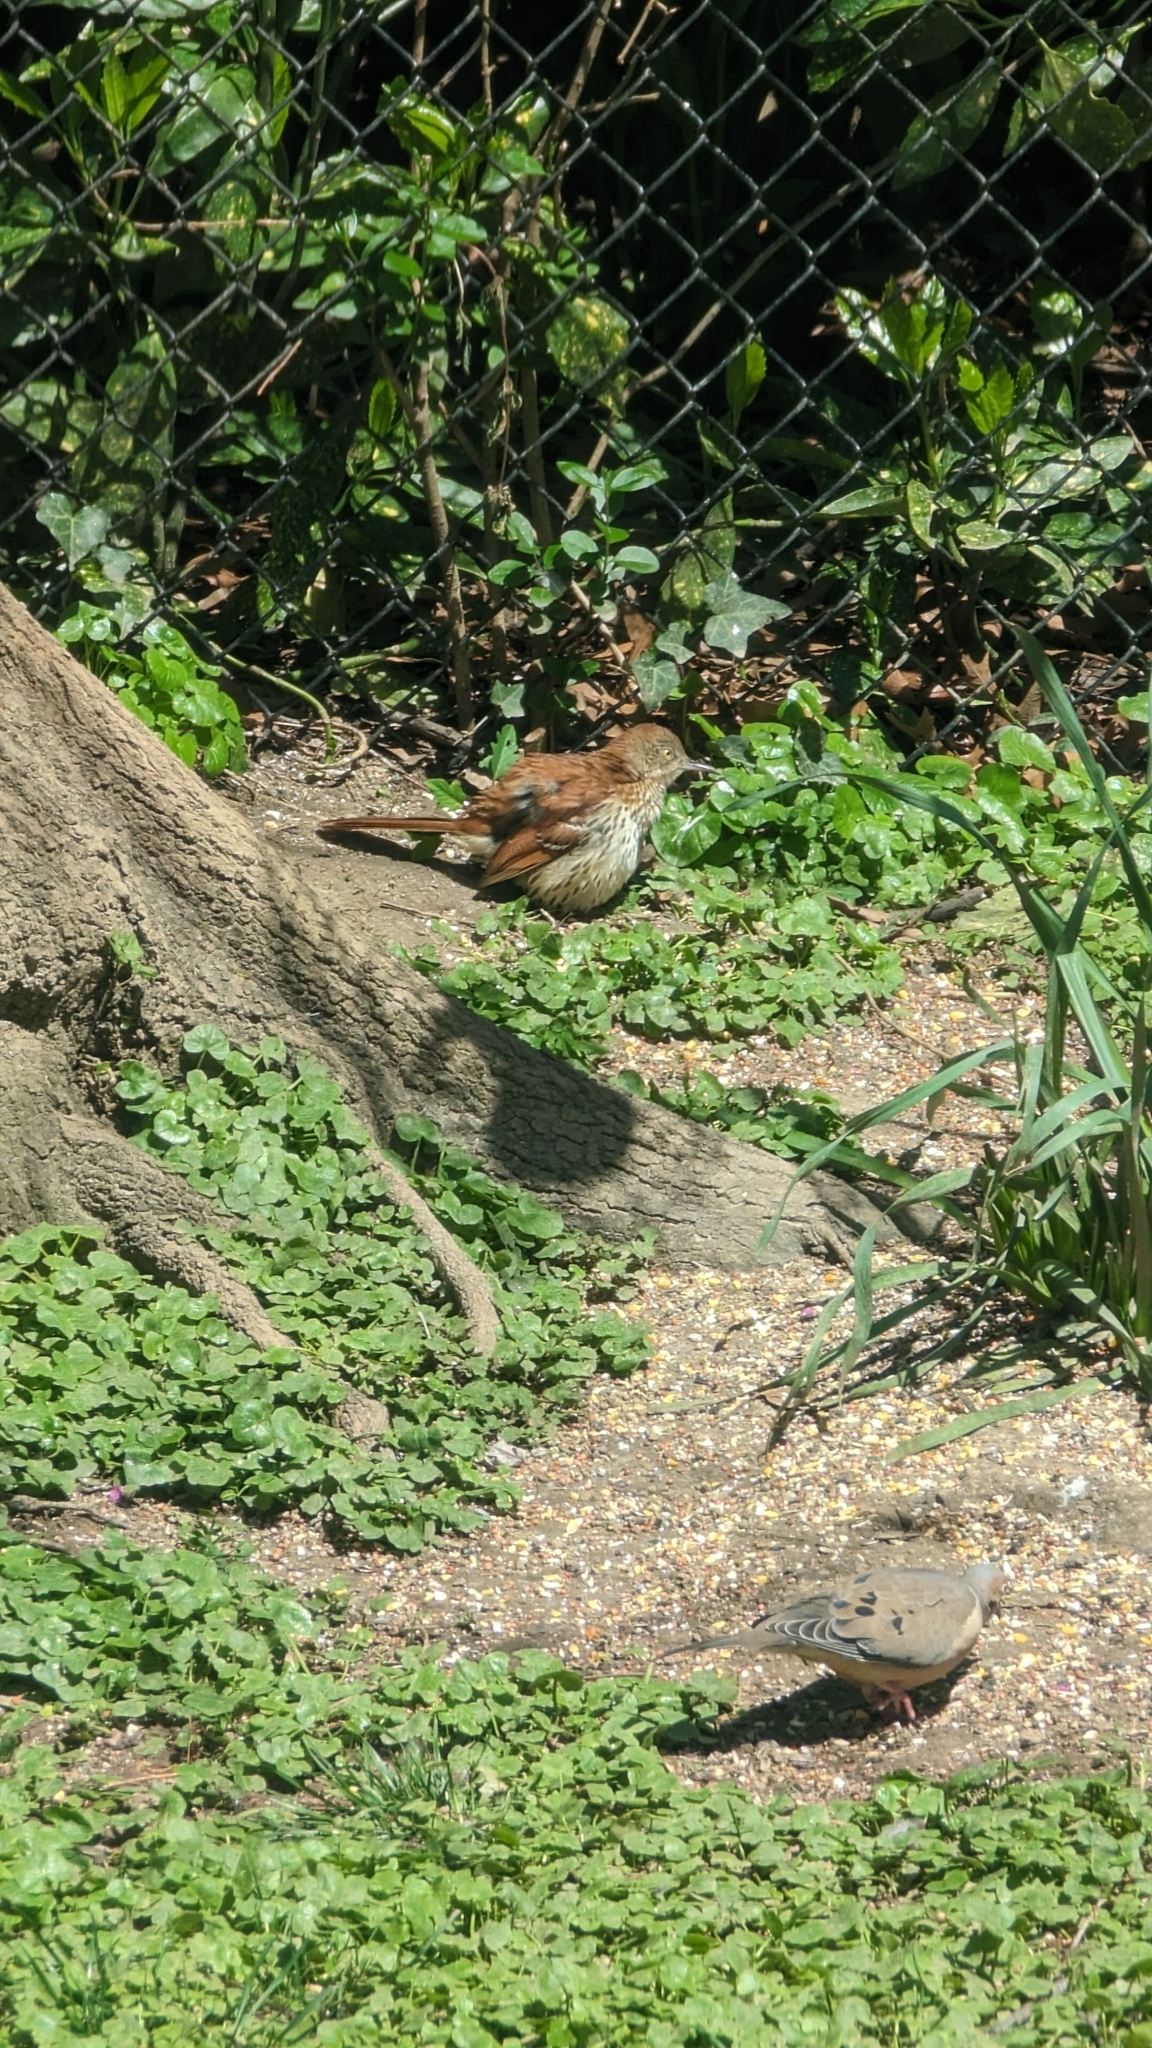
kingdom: Animalia
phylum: Chordata
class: Aves
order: Passeriformes
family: Mimidae
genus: Toxostoma
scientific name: Toxostoma rufum
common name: Brown thrasher
